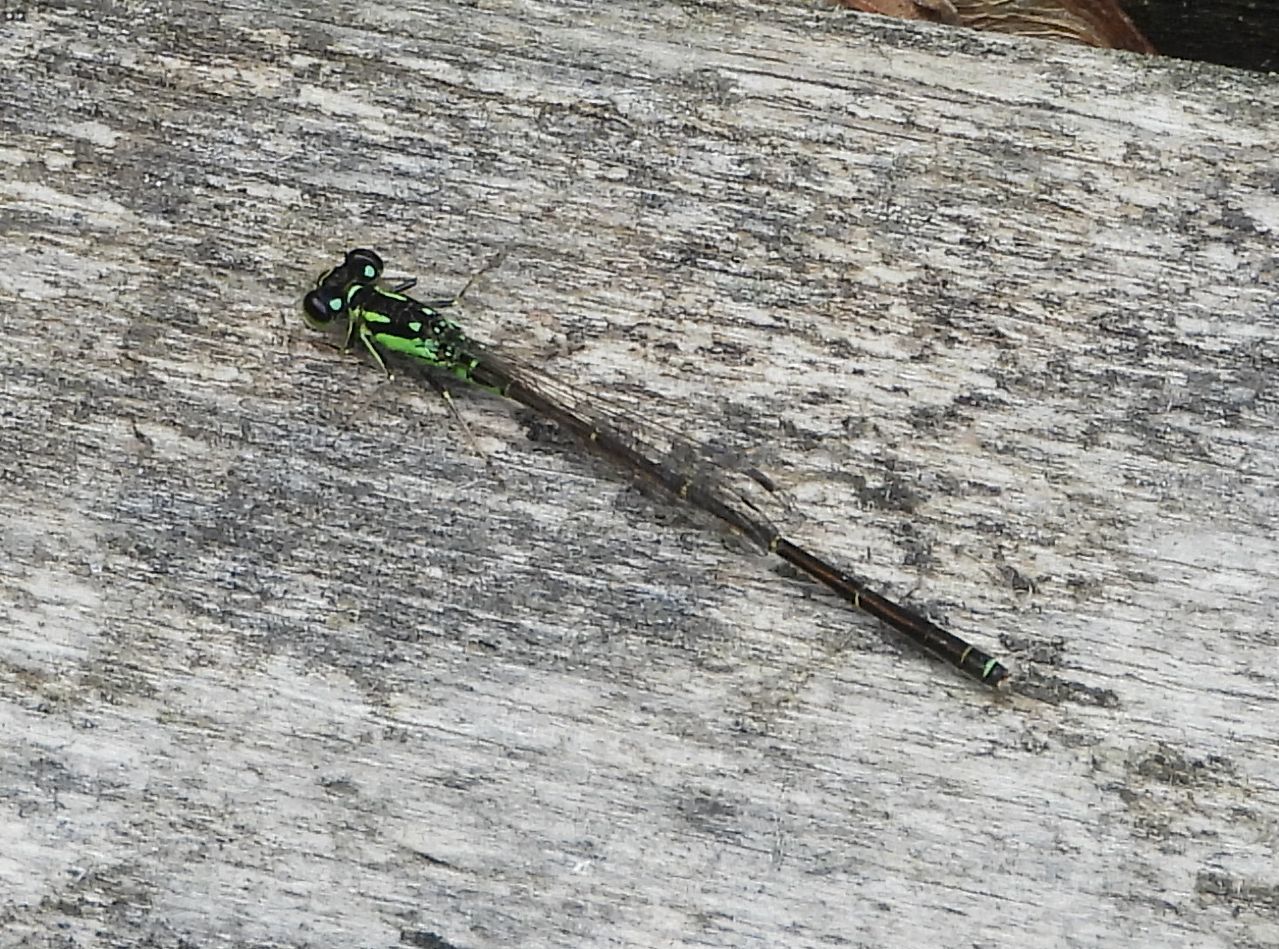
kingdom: Animalia
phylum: Arthropoda
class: Insecta
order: Odonata
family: Coenagrionidae
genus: Ischnura
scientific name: Ischnura posita
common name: Fragile forktail
